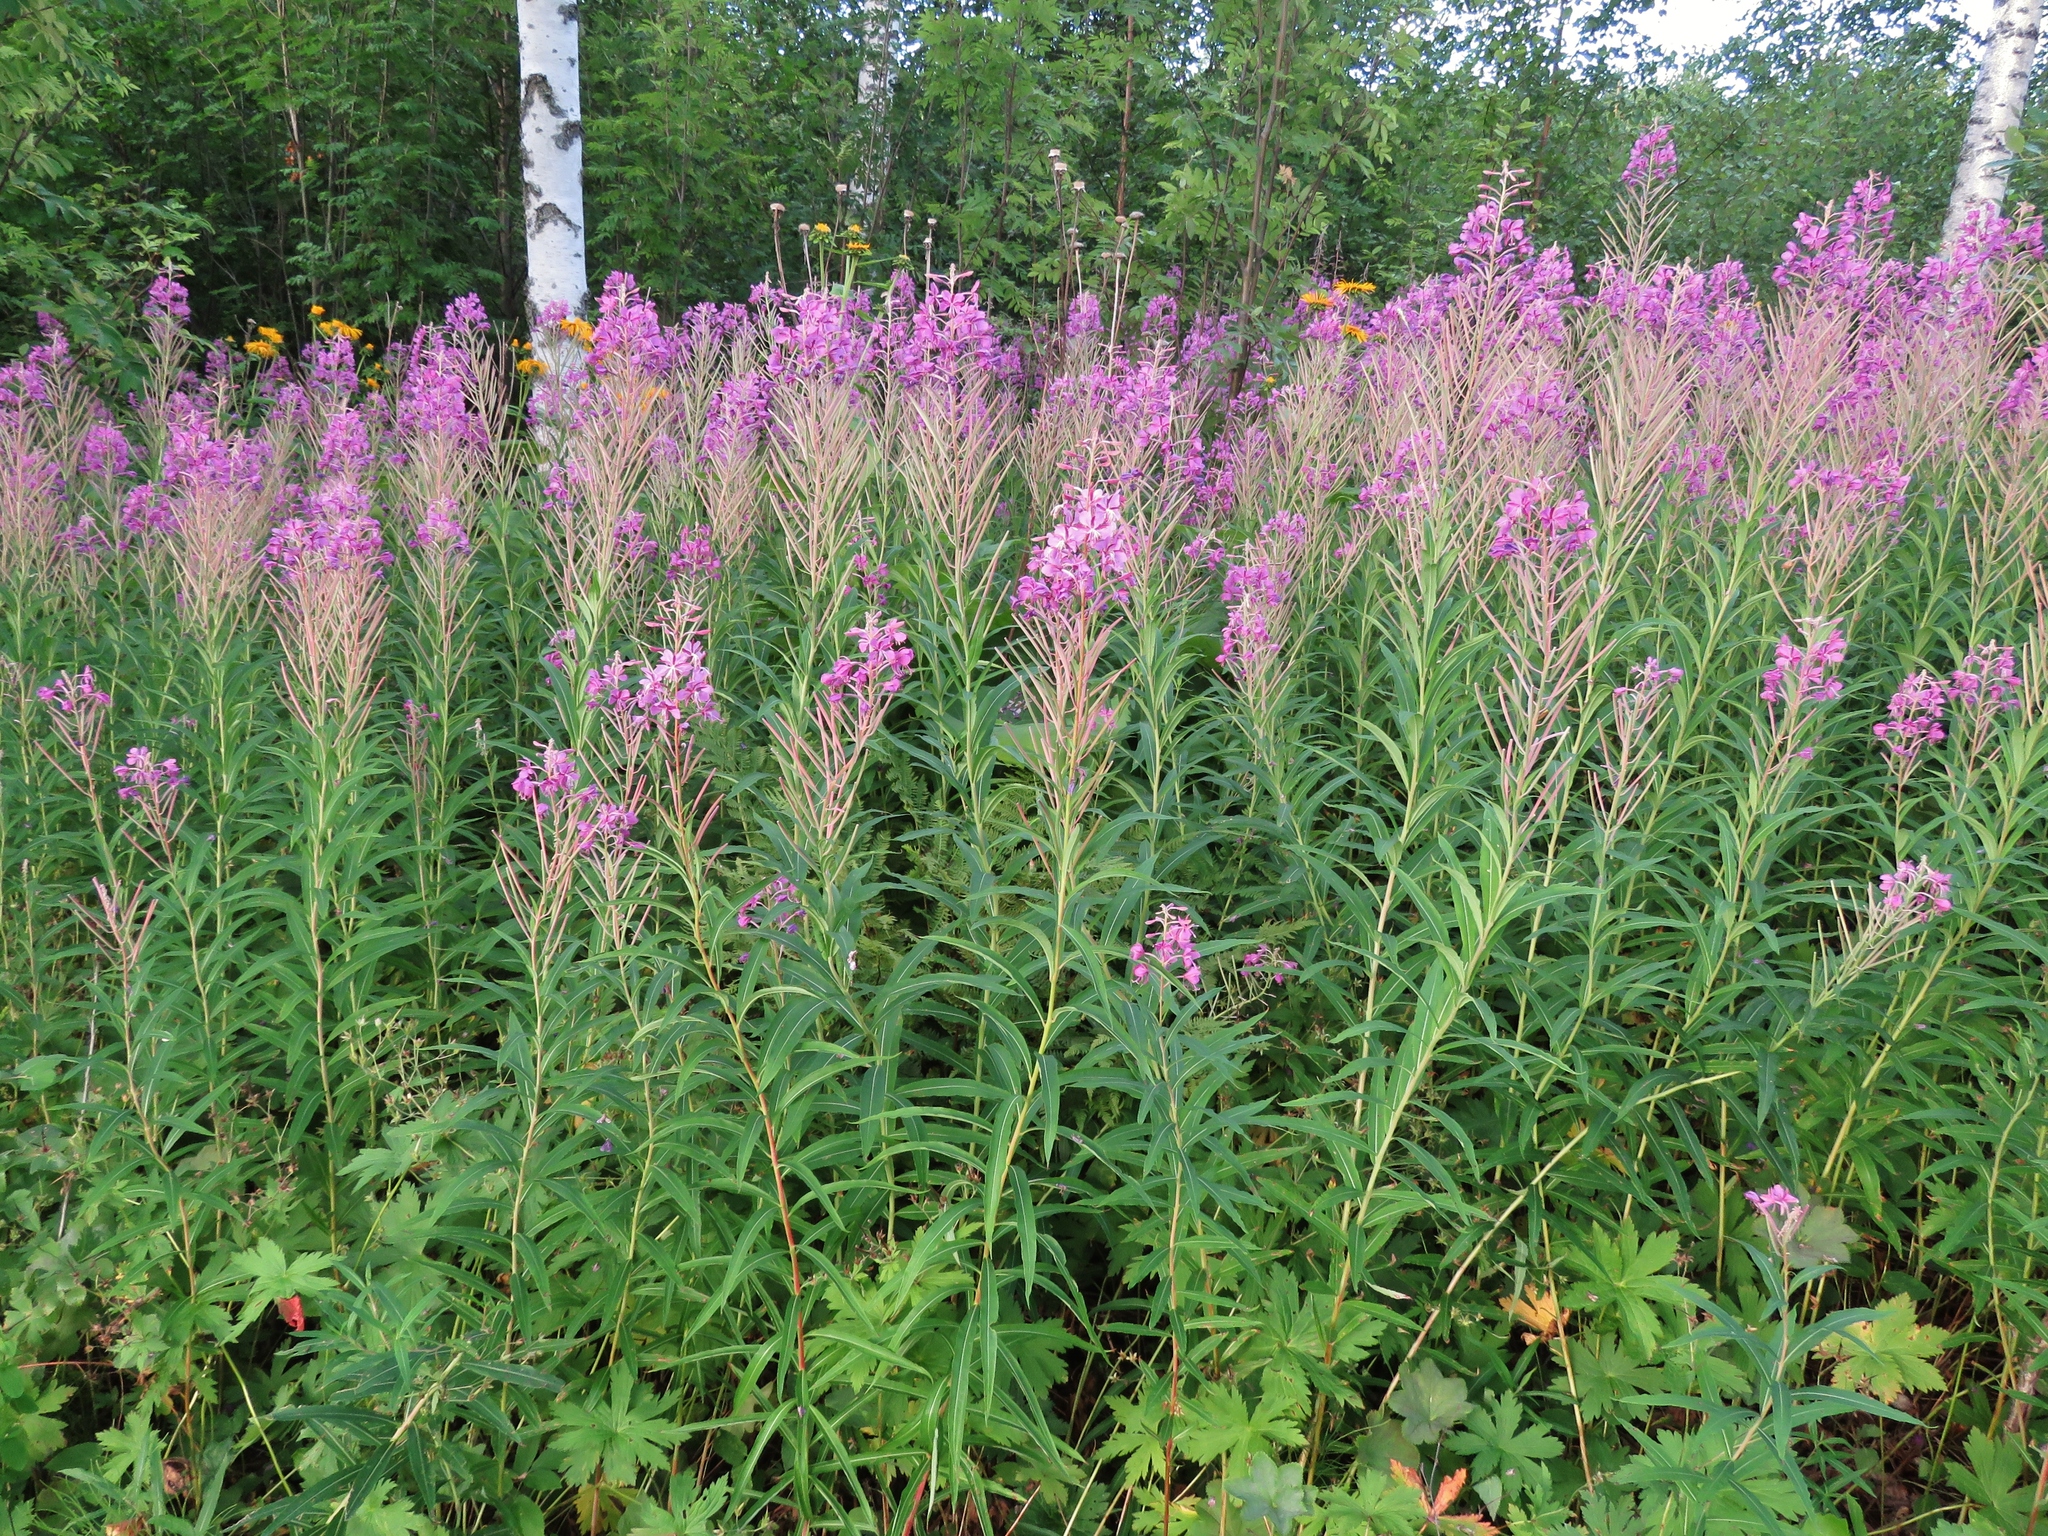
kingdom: Plantae
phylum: Tracheophyta
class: Magnoliopsida
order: Myrtales
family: Onagraceae
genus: Chamaenerion
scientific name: Chamaenerion angustifolium
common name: Fireweed
